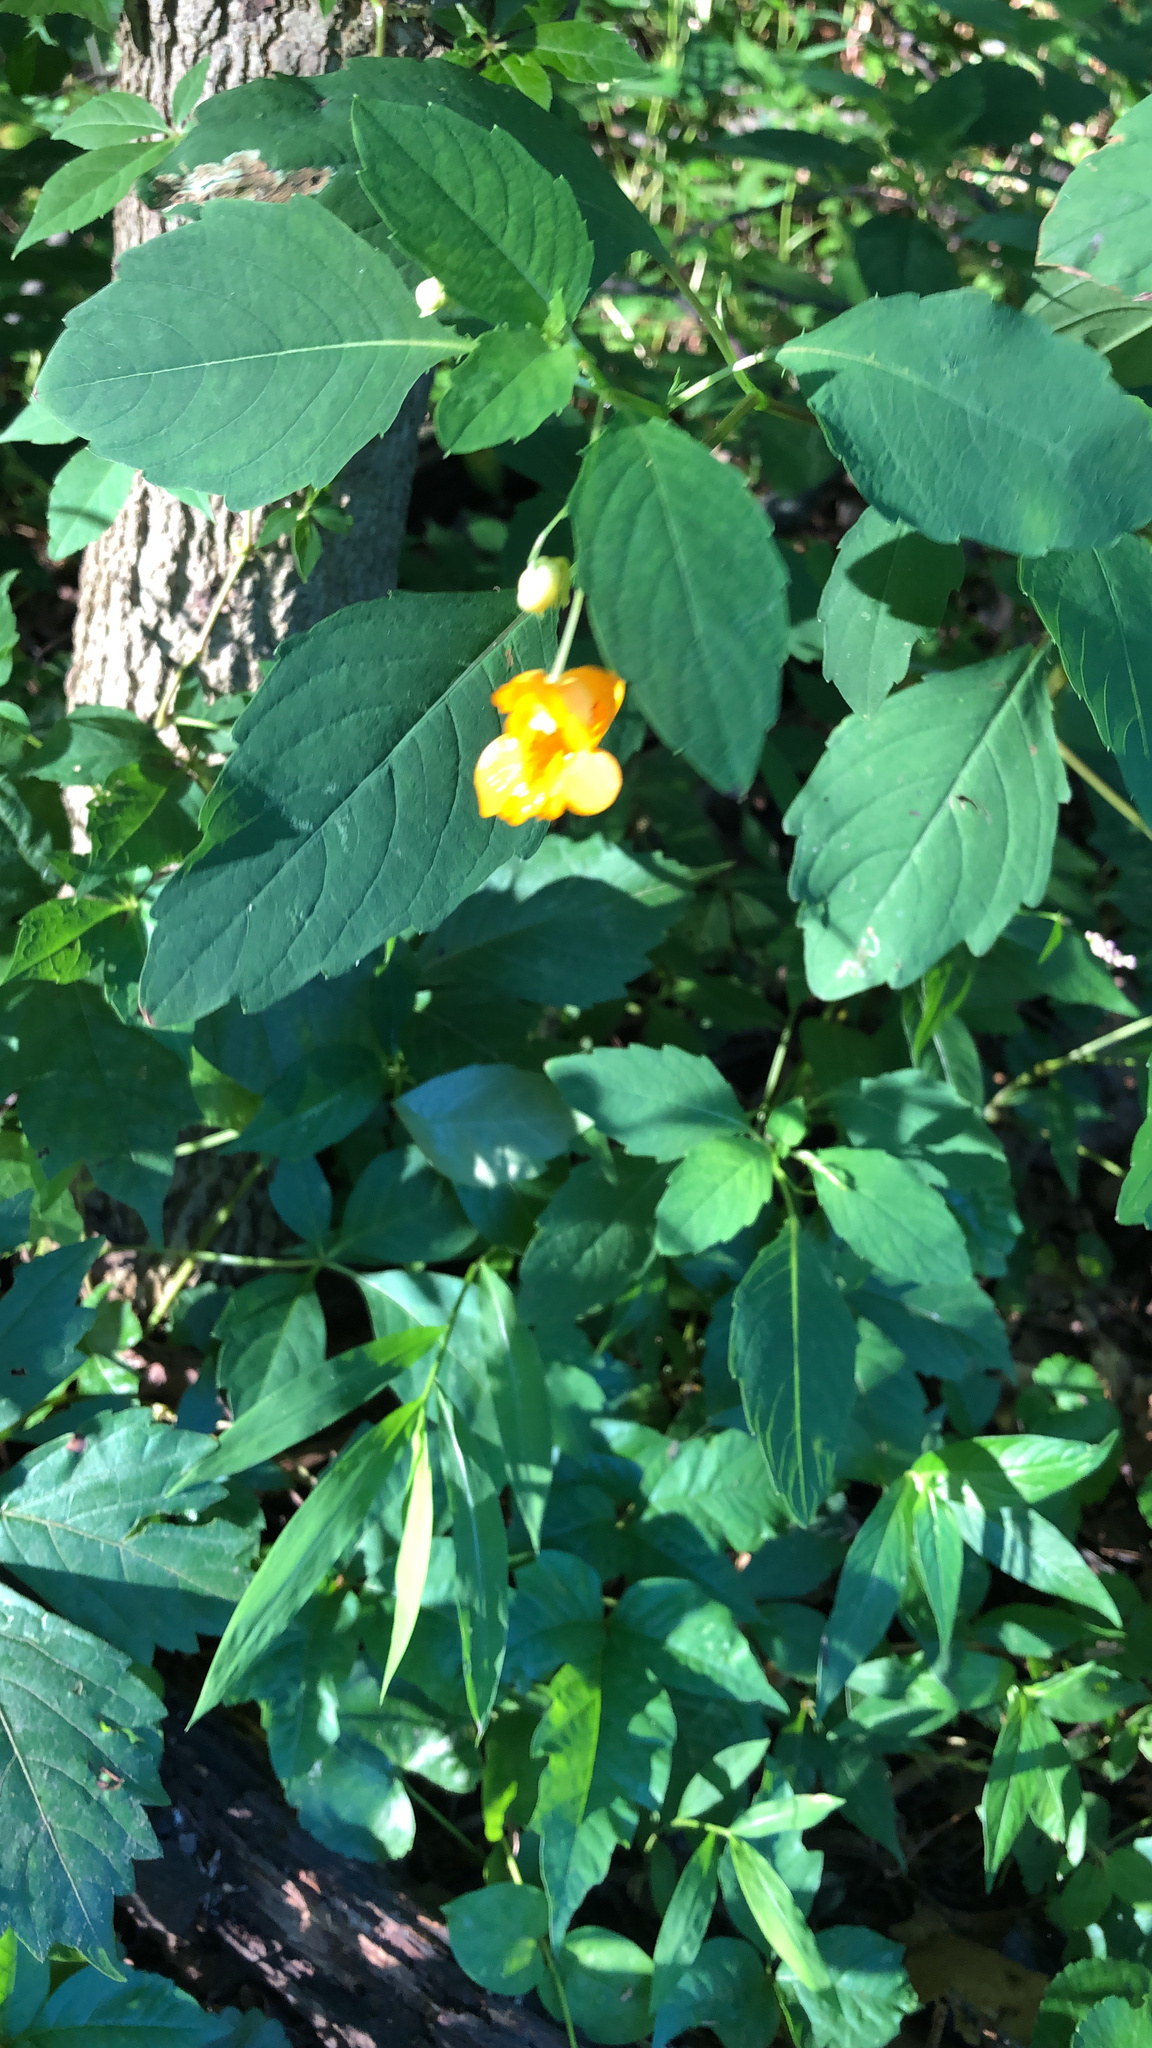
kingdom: Plantae
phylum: Tracheophyta
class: Magnoliopsida
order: Ericales
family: Balsaminaceae
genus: Impatiens
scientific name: Impatiens capensis
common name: Orange balsam
